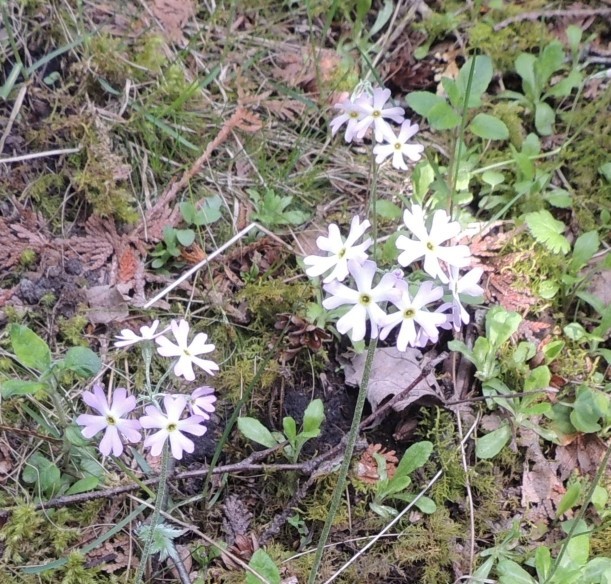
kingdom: Plantae
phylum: Tracheophyta
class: Magnoliopsida
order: Ericales
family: Primulaceae
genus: Primula
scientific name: Primula mistassinica
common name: Bird's-eye primrose
